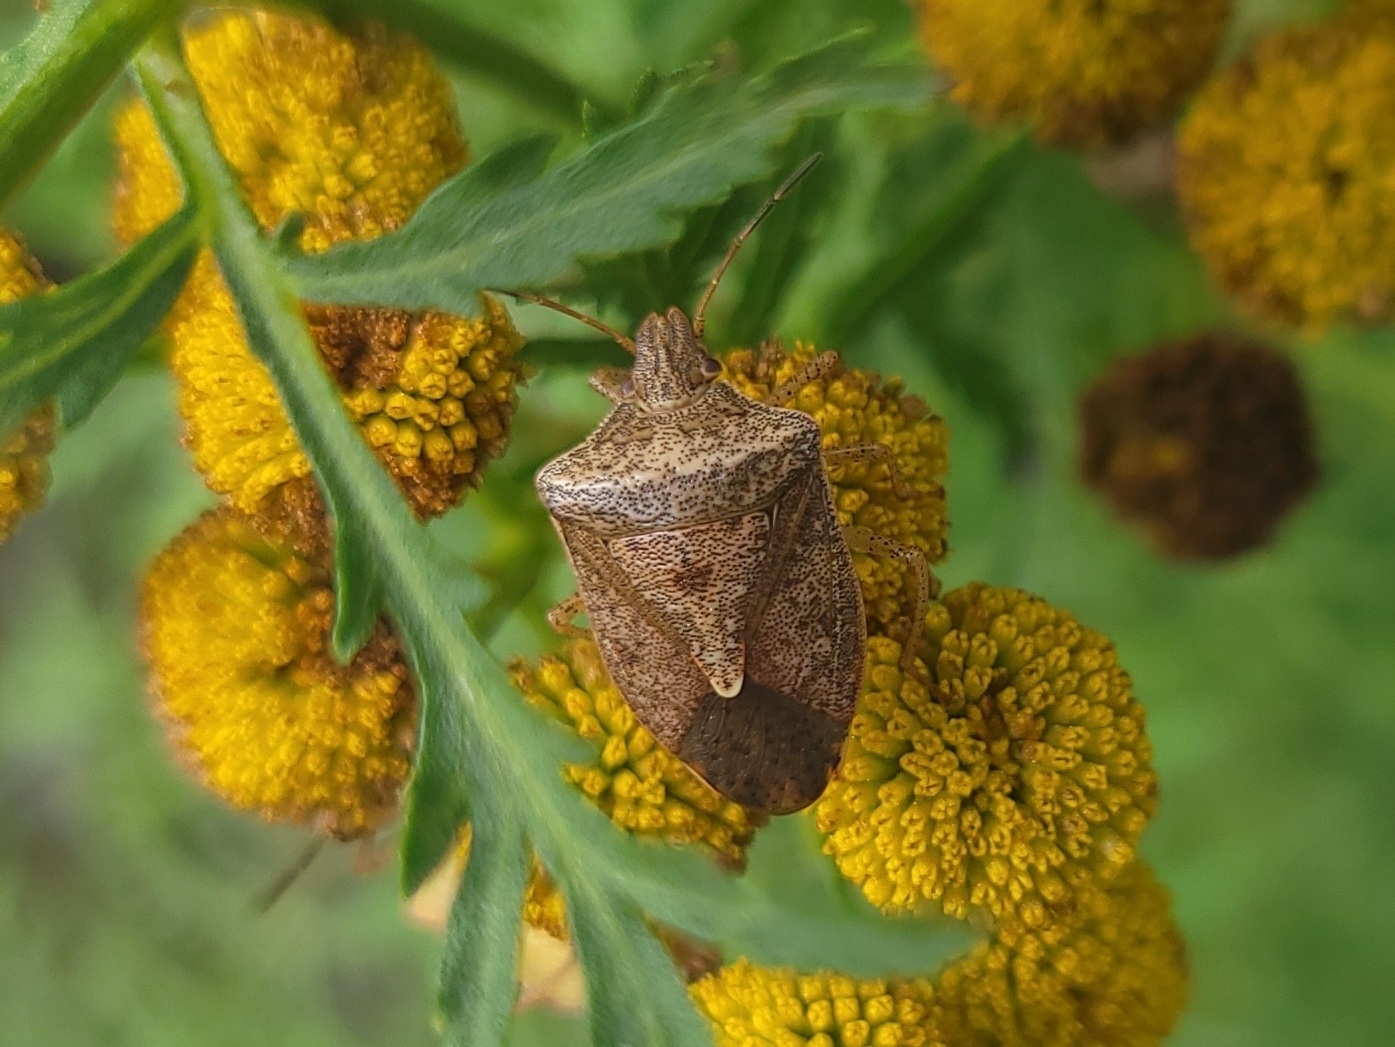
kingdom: Animalia
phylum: Arthropoda
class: Insecta
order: Hemiptera
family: Pentatomidae
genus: Euschistus
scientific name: Euschistus servus
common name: Brown stink bug
